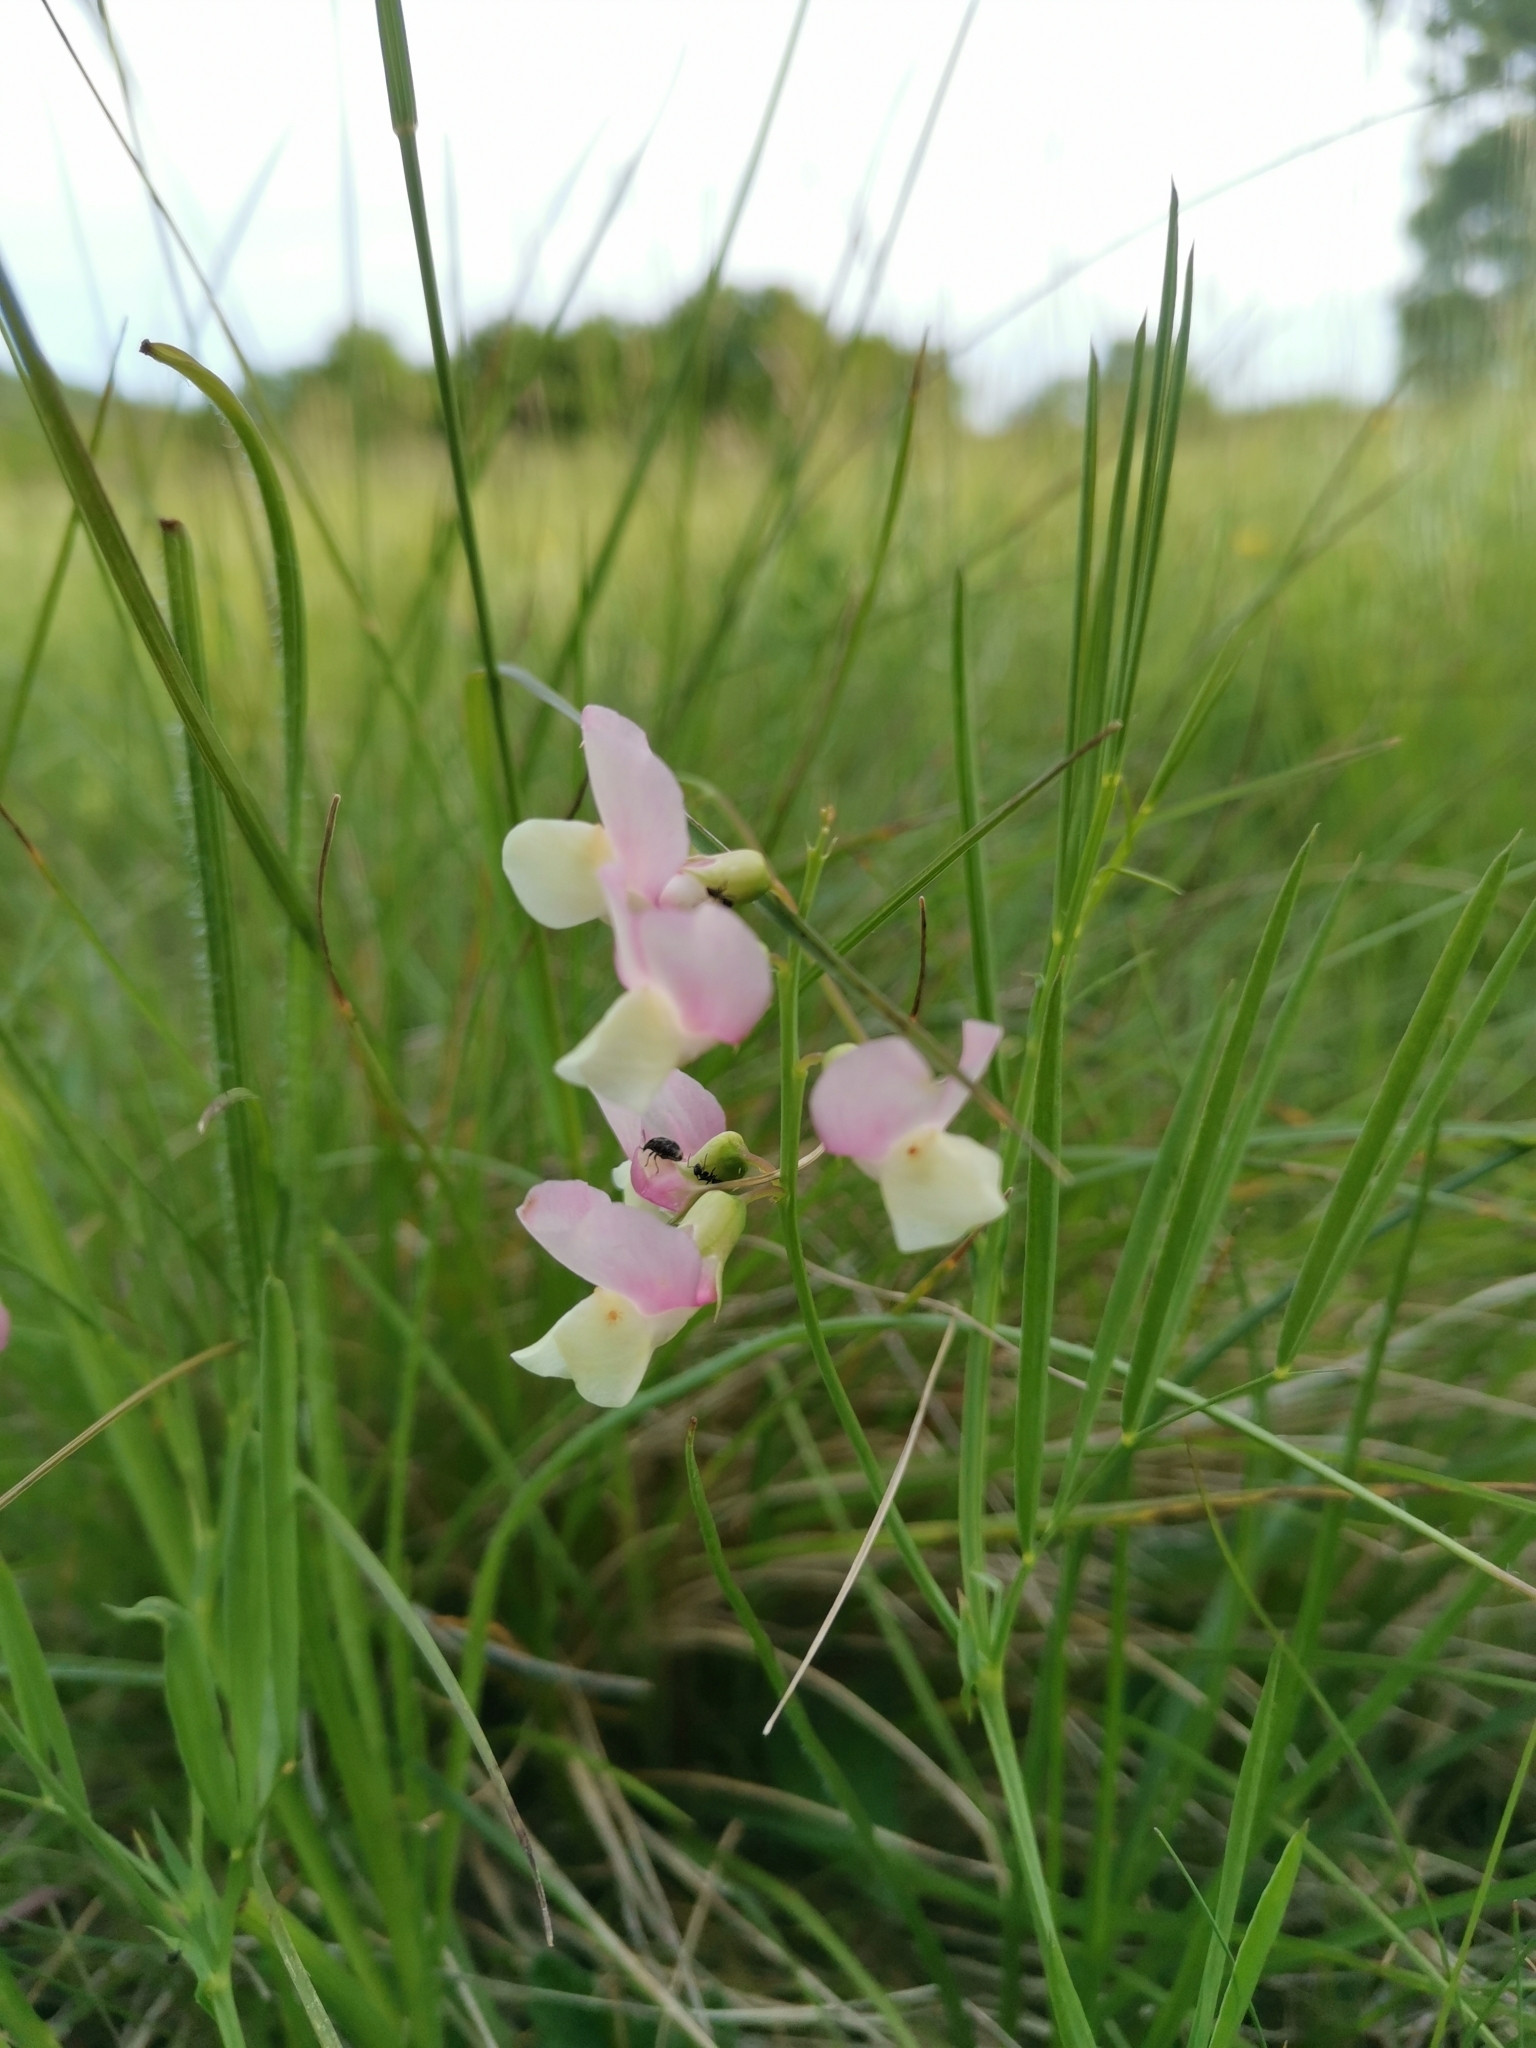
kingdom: Plantae
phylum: Tracheophyta
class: Magnoliopsida
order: Fabales
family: Fabaceae
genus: Lathyrus
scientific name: Lathyrus pannonicus
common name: Pea
